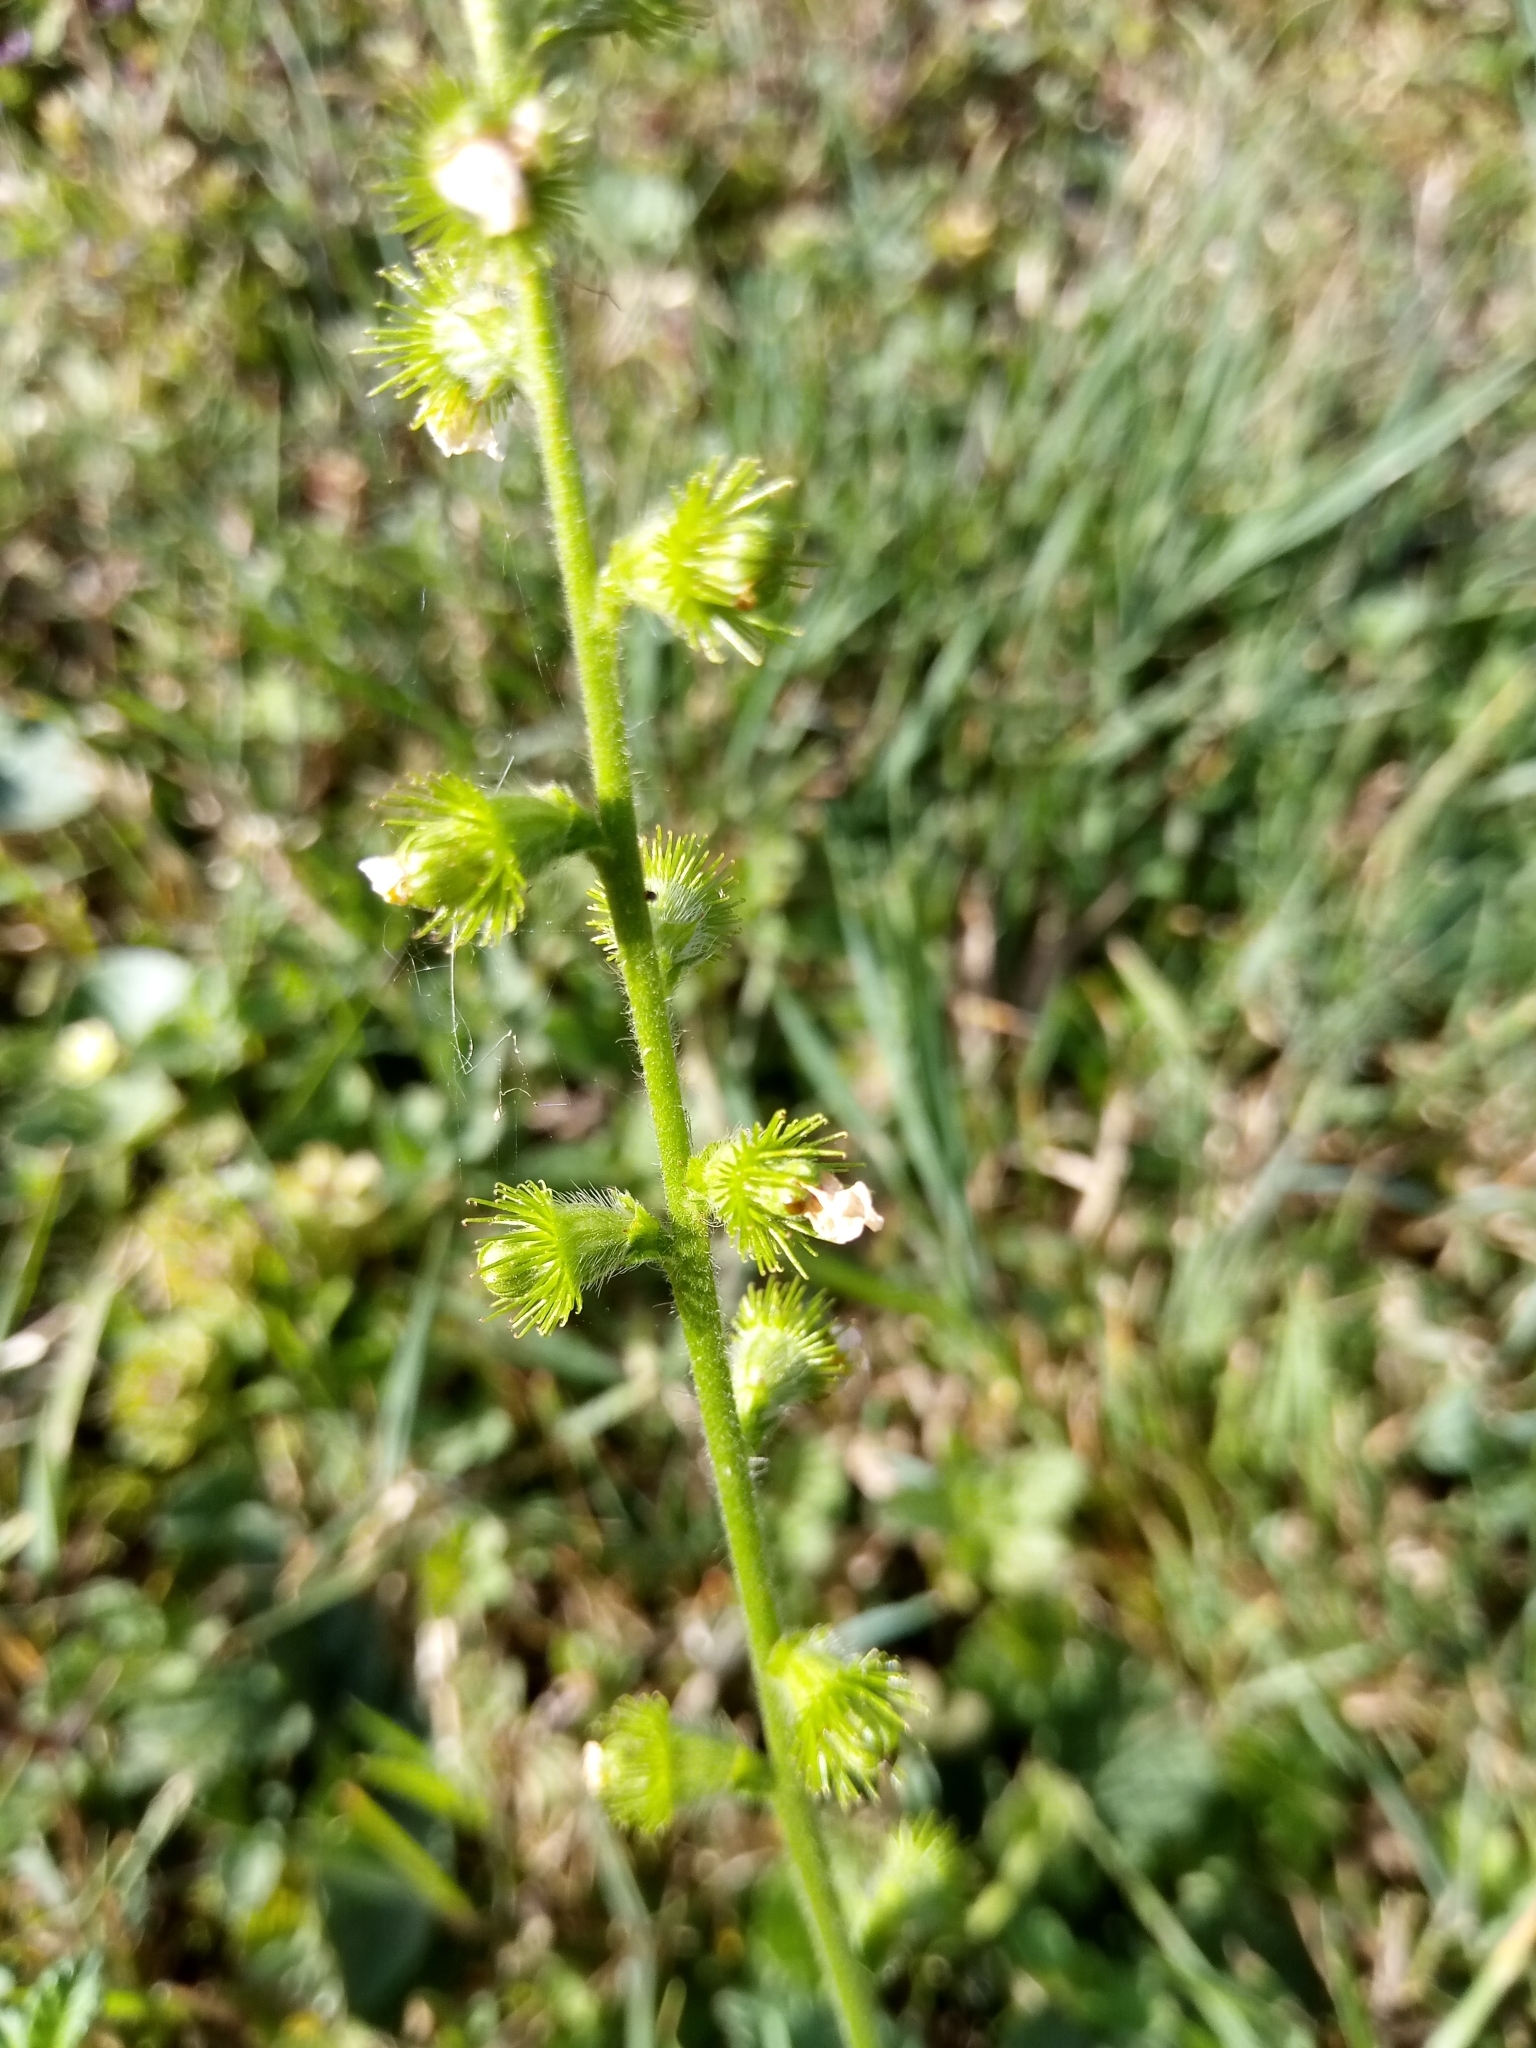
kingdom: Plantae
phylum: Tracheophyta
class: Magnoliopsida
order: Rosales
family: Rosaceae
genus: Agrimonia
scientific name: Agrimonia eupatoria
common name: Agrimony
